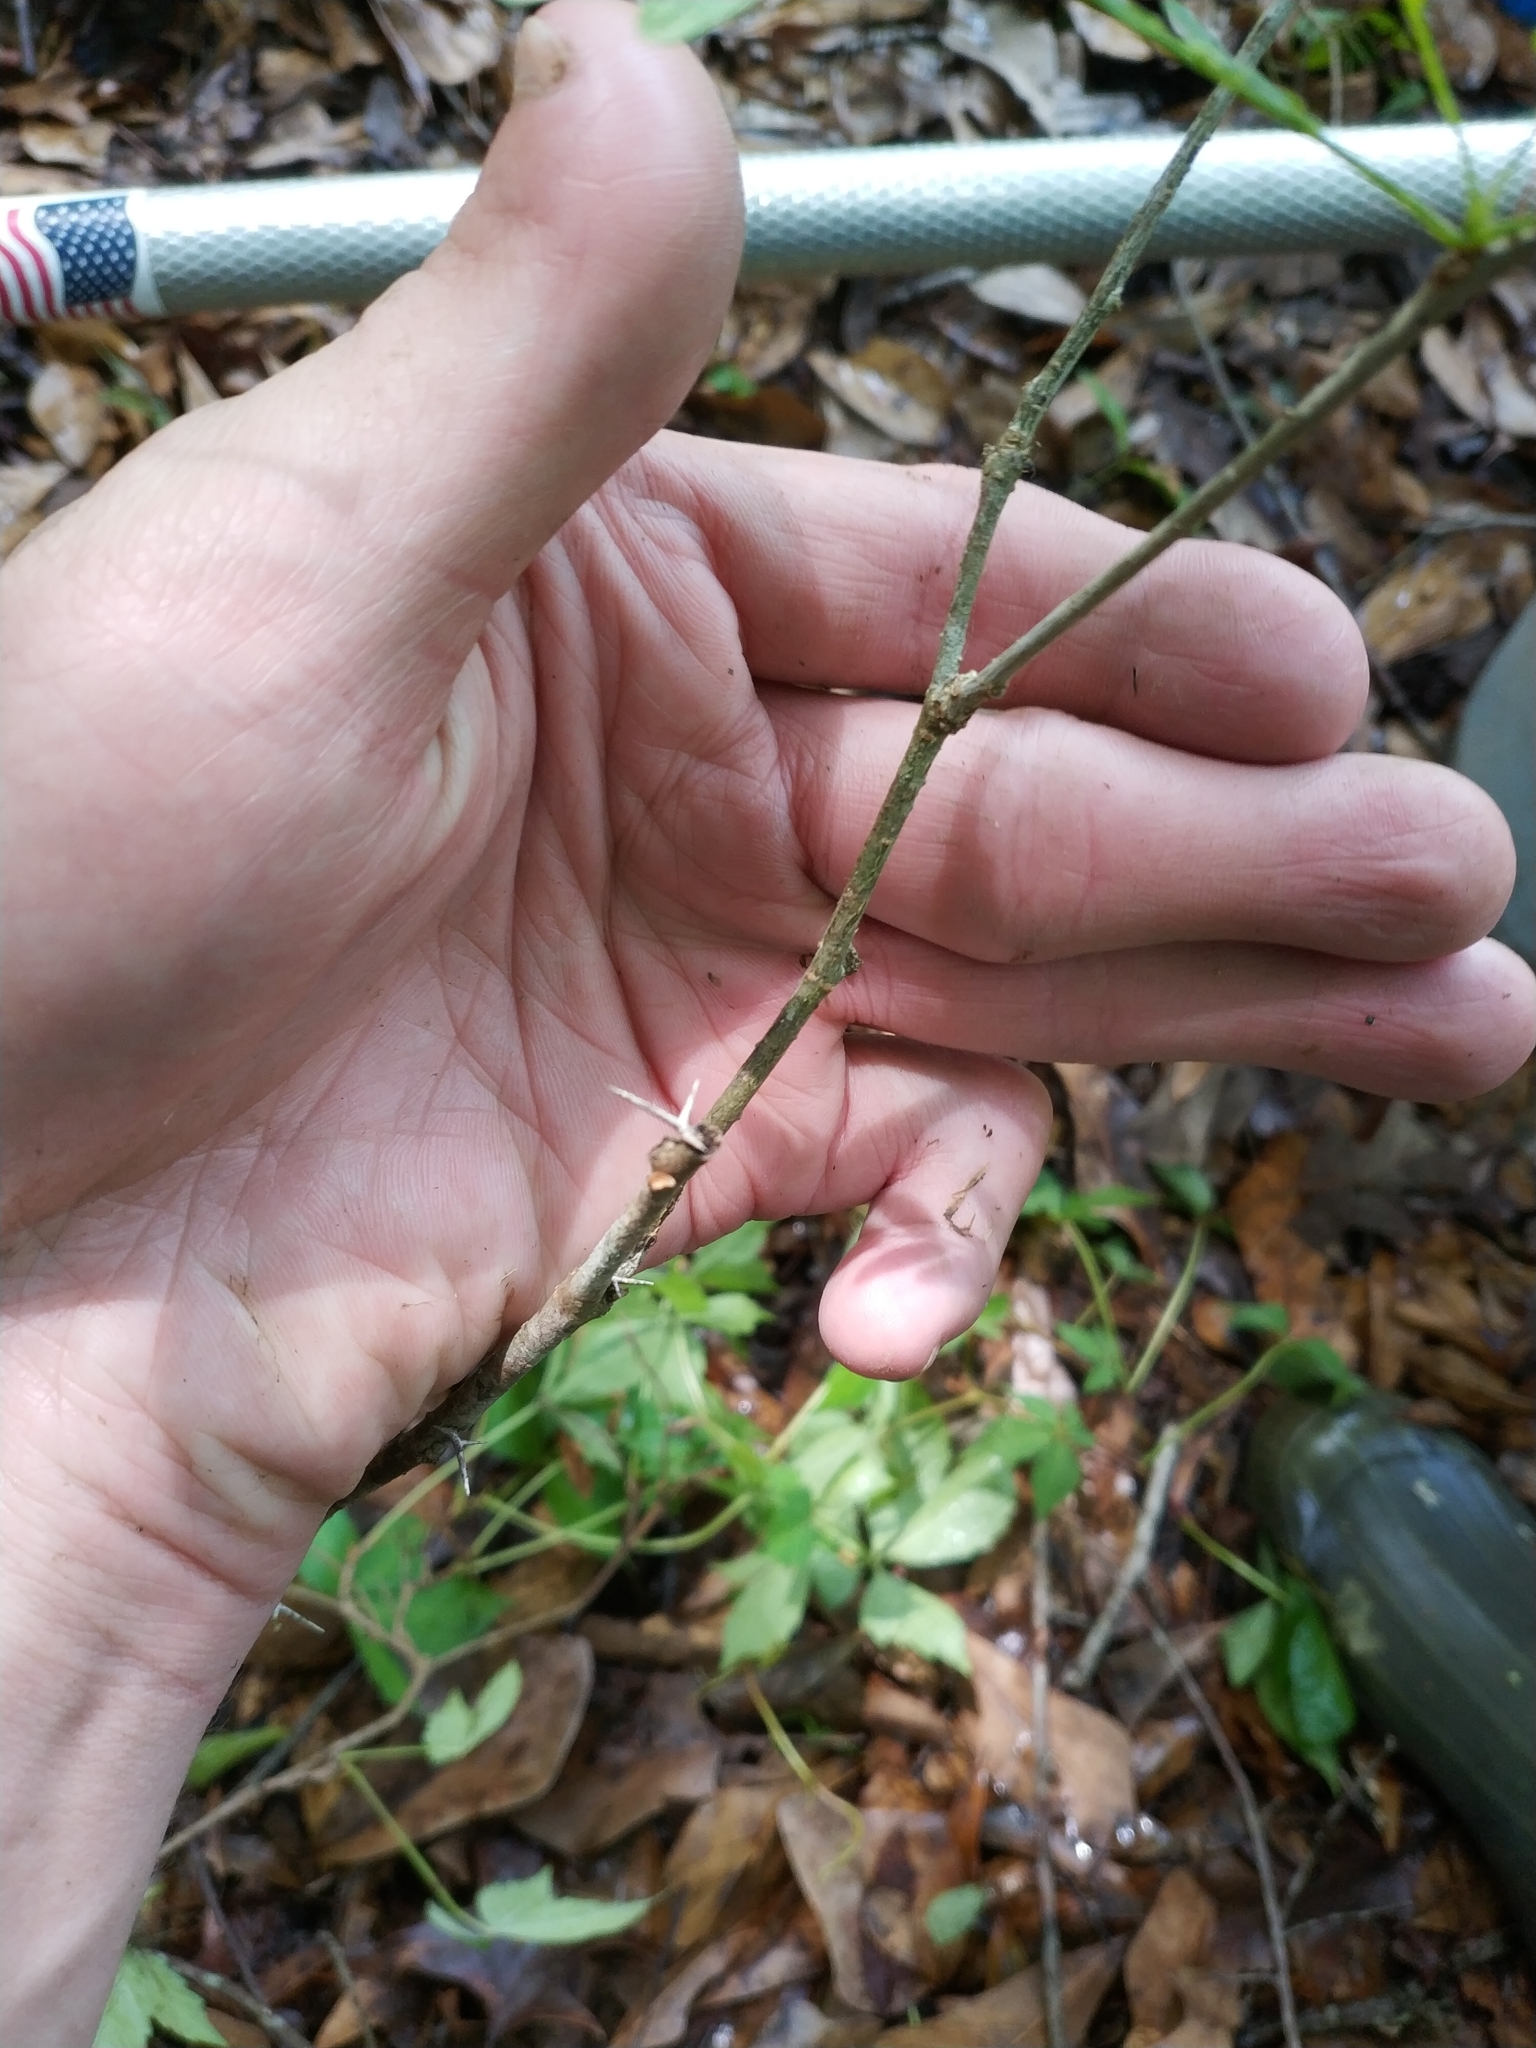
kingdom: Plantae
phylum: Tracheophyta
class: Magnoliopsida
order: Fabales
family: Fabaceae
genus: Robinia
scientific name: Robinia pseudoacacia
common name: Black locust
